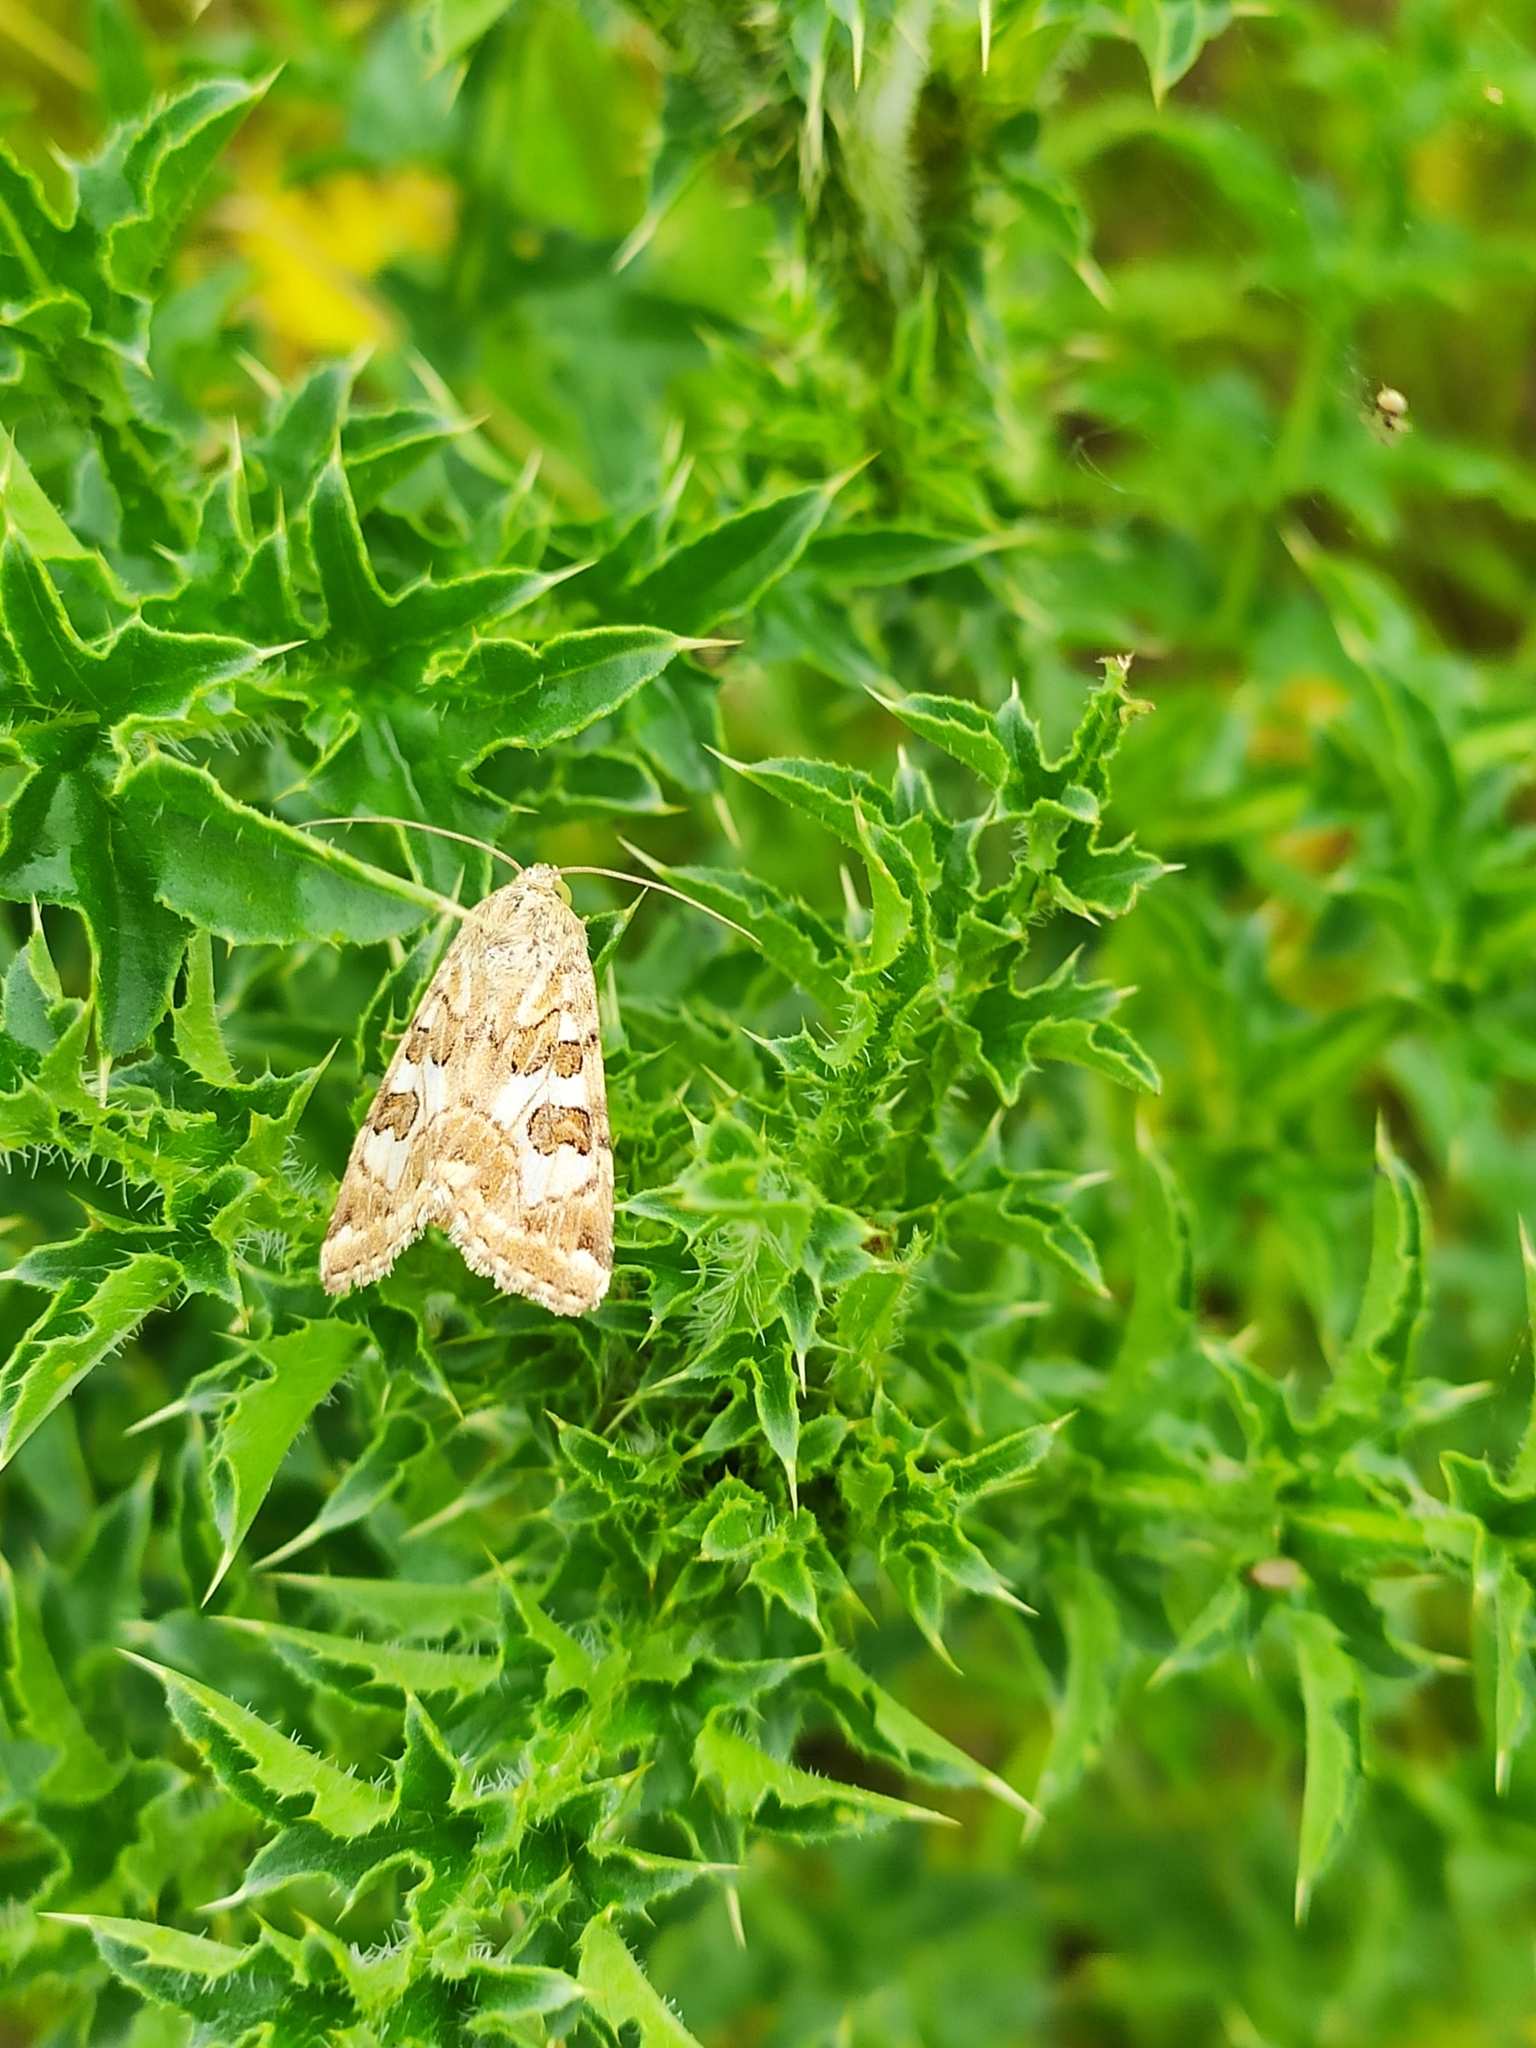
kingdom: Animalia
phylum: Arthropoda
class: Insecta
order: Lepidoptera
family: Noctuidae
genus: Protoschinia
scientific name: Protoschinia scutosa
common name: Spotted clover
